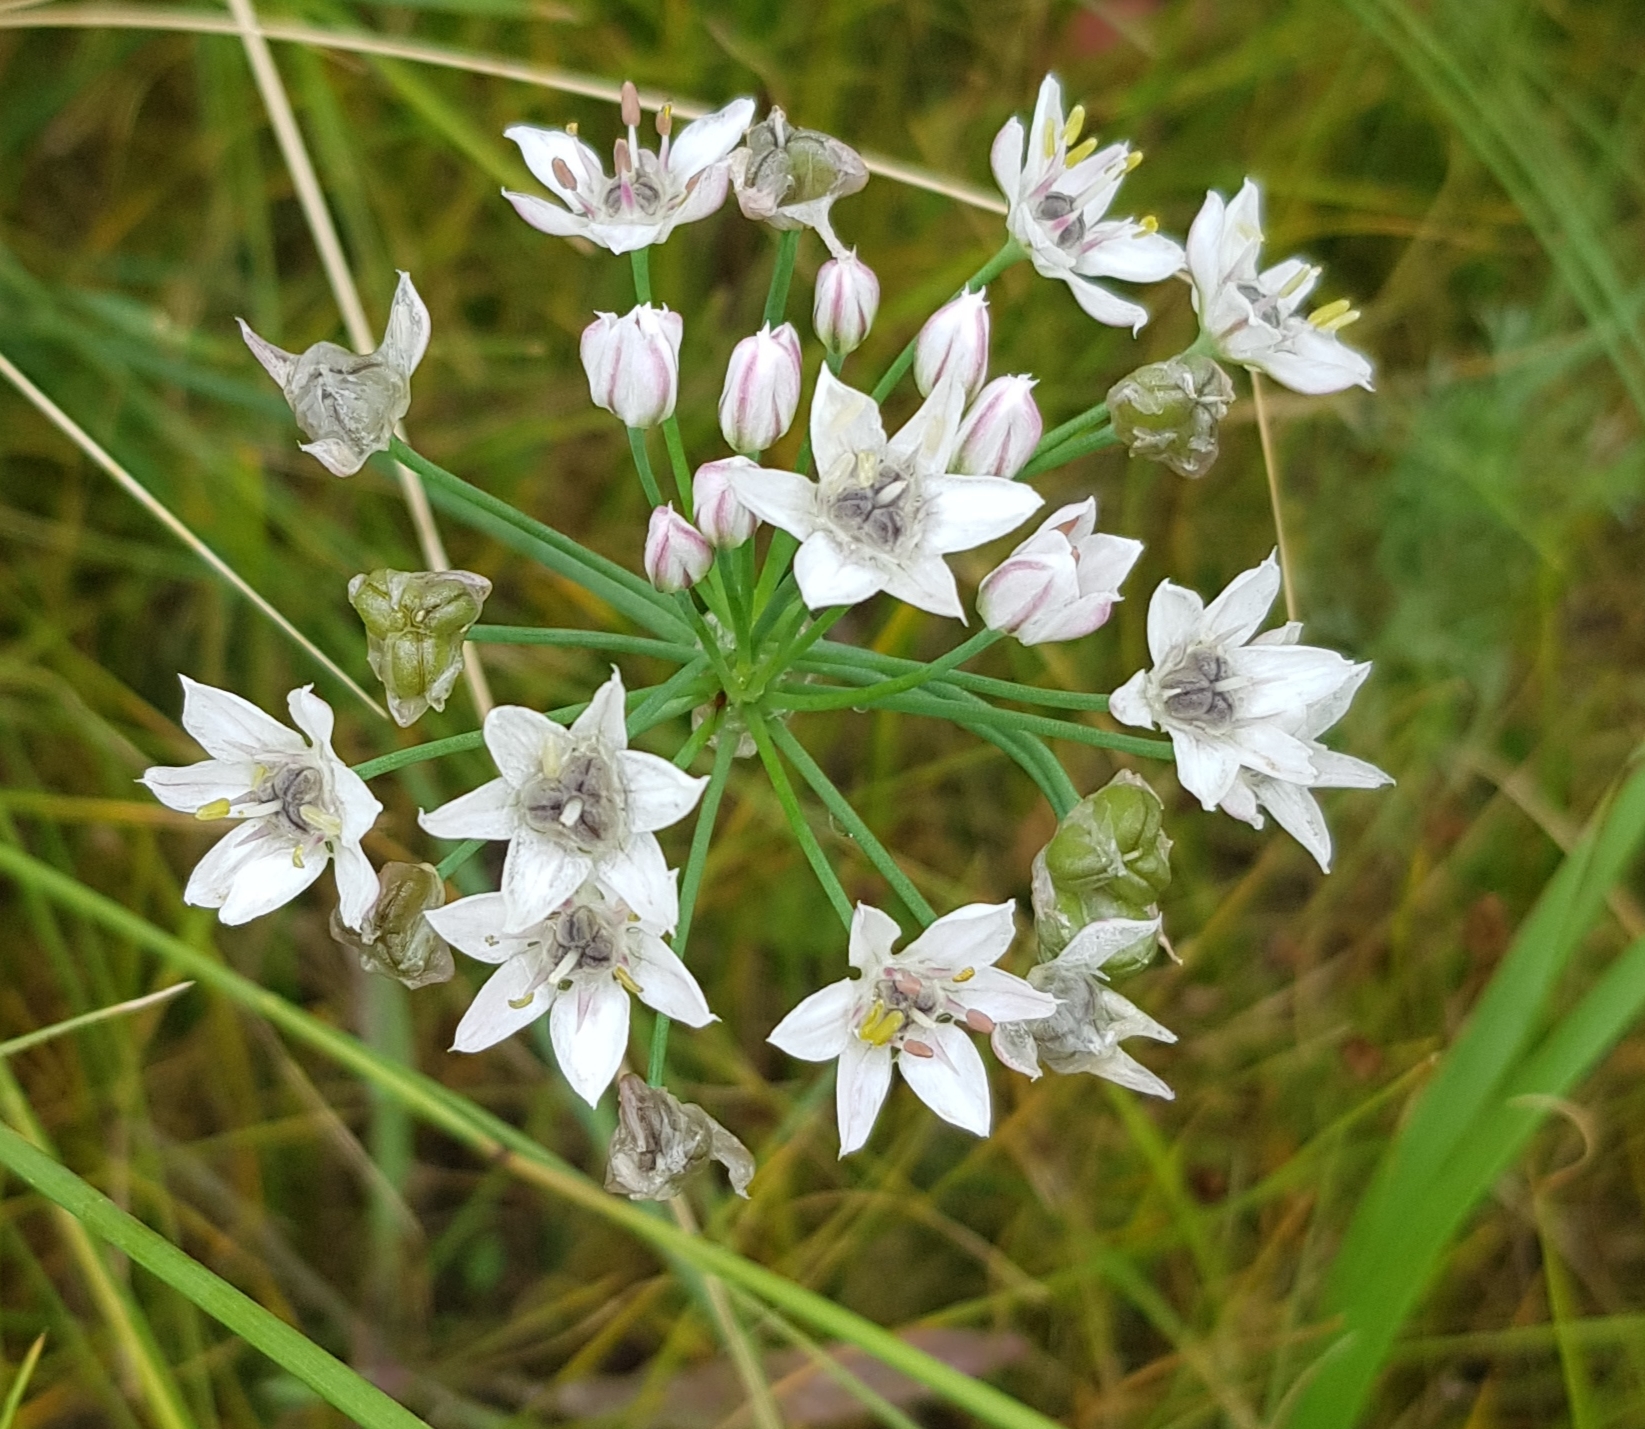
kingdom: Plantae
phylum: Tracheophyta
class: Liliopsida
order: Asparagales
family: Amaryllidaceae
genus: Allium
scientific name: Allium ramosum
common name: Fragrant garlic
